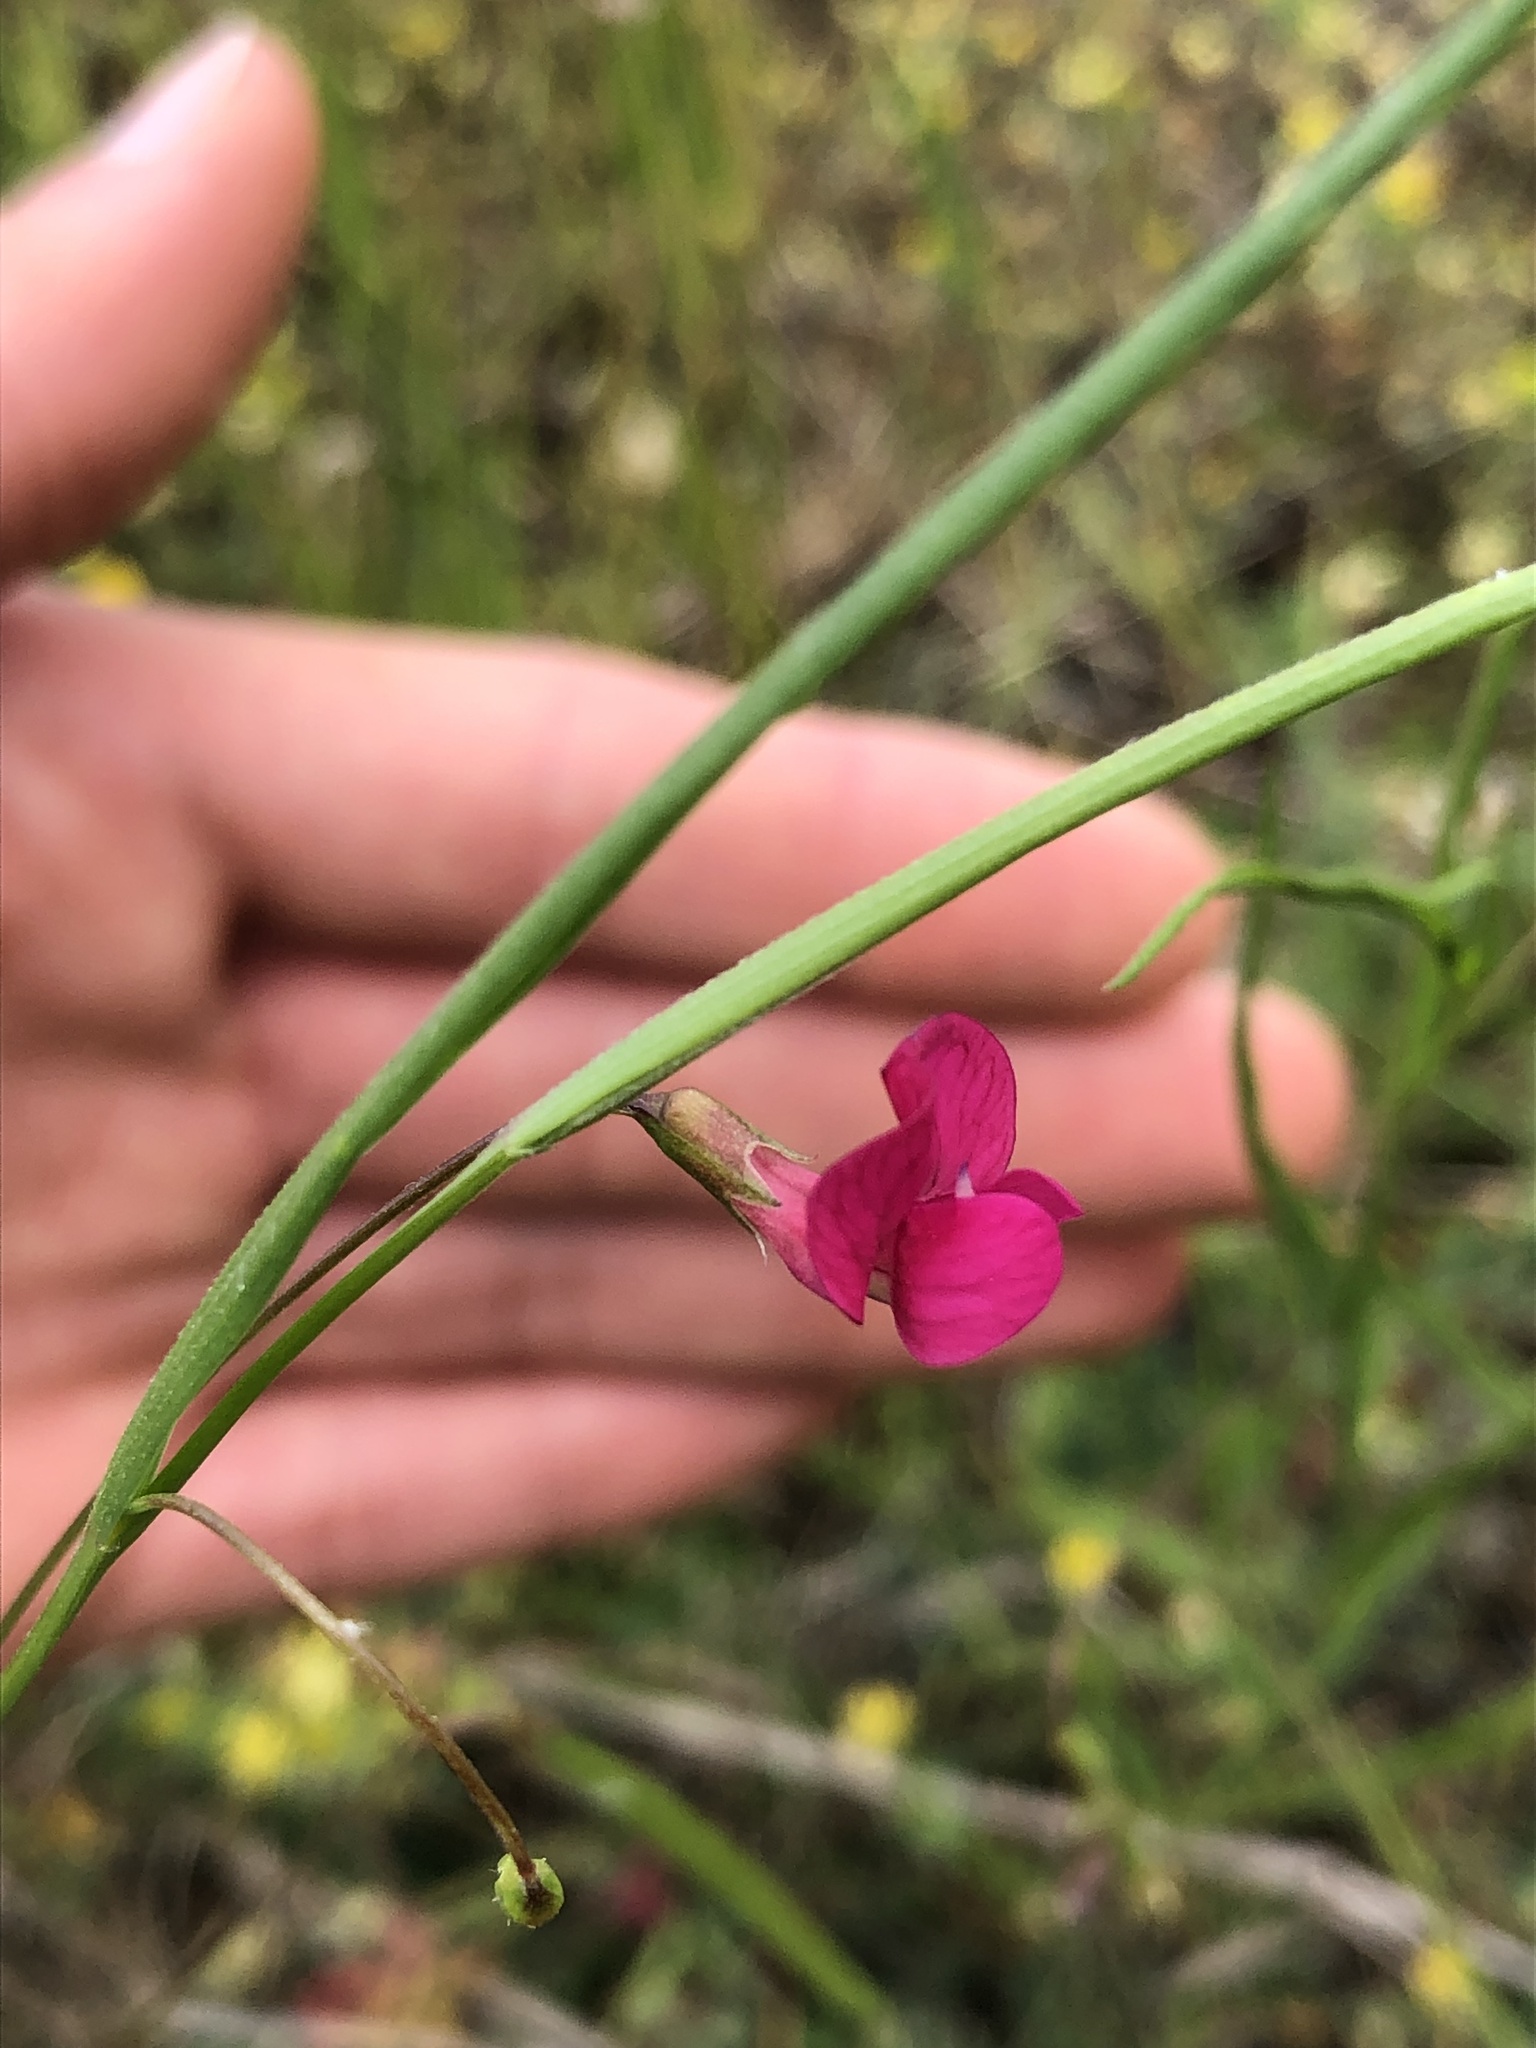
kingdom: Plantae
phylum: Tracheophyta
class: Magnoliopsida
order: Fabales
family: Fabaceae
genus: Lathyrus
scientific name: Lathyrus nissolia
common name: Grass vetchling
